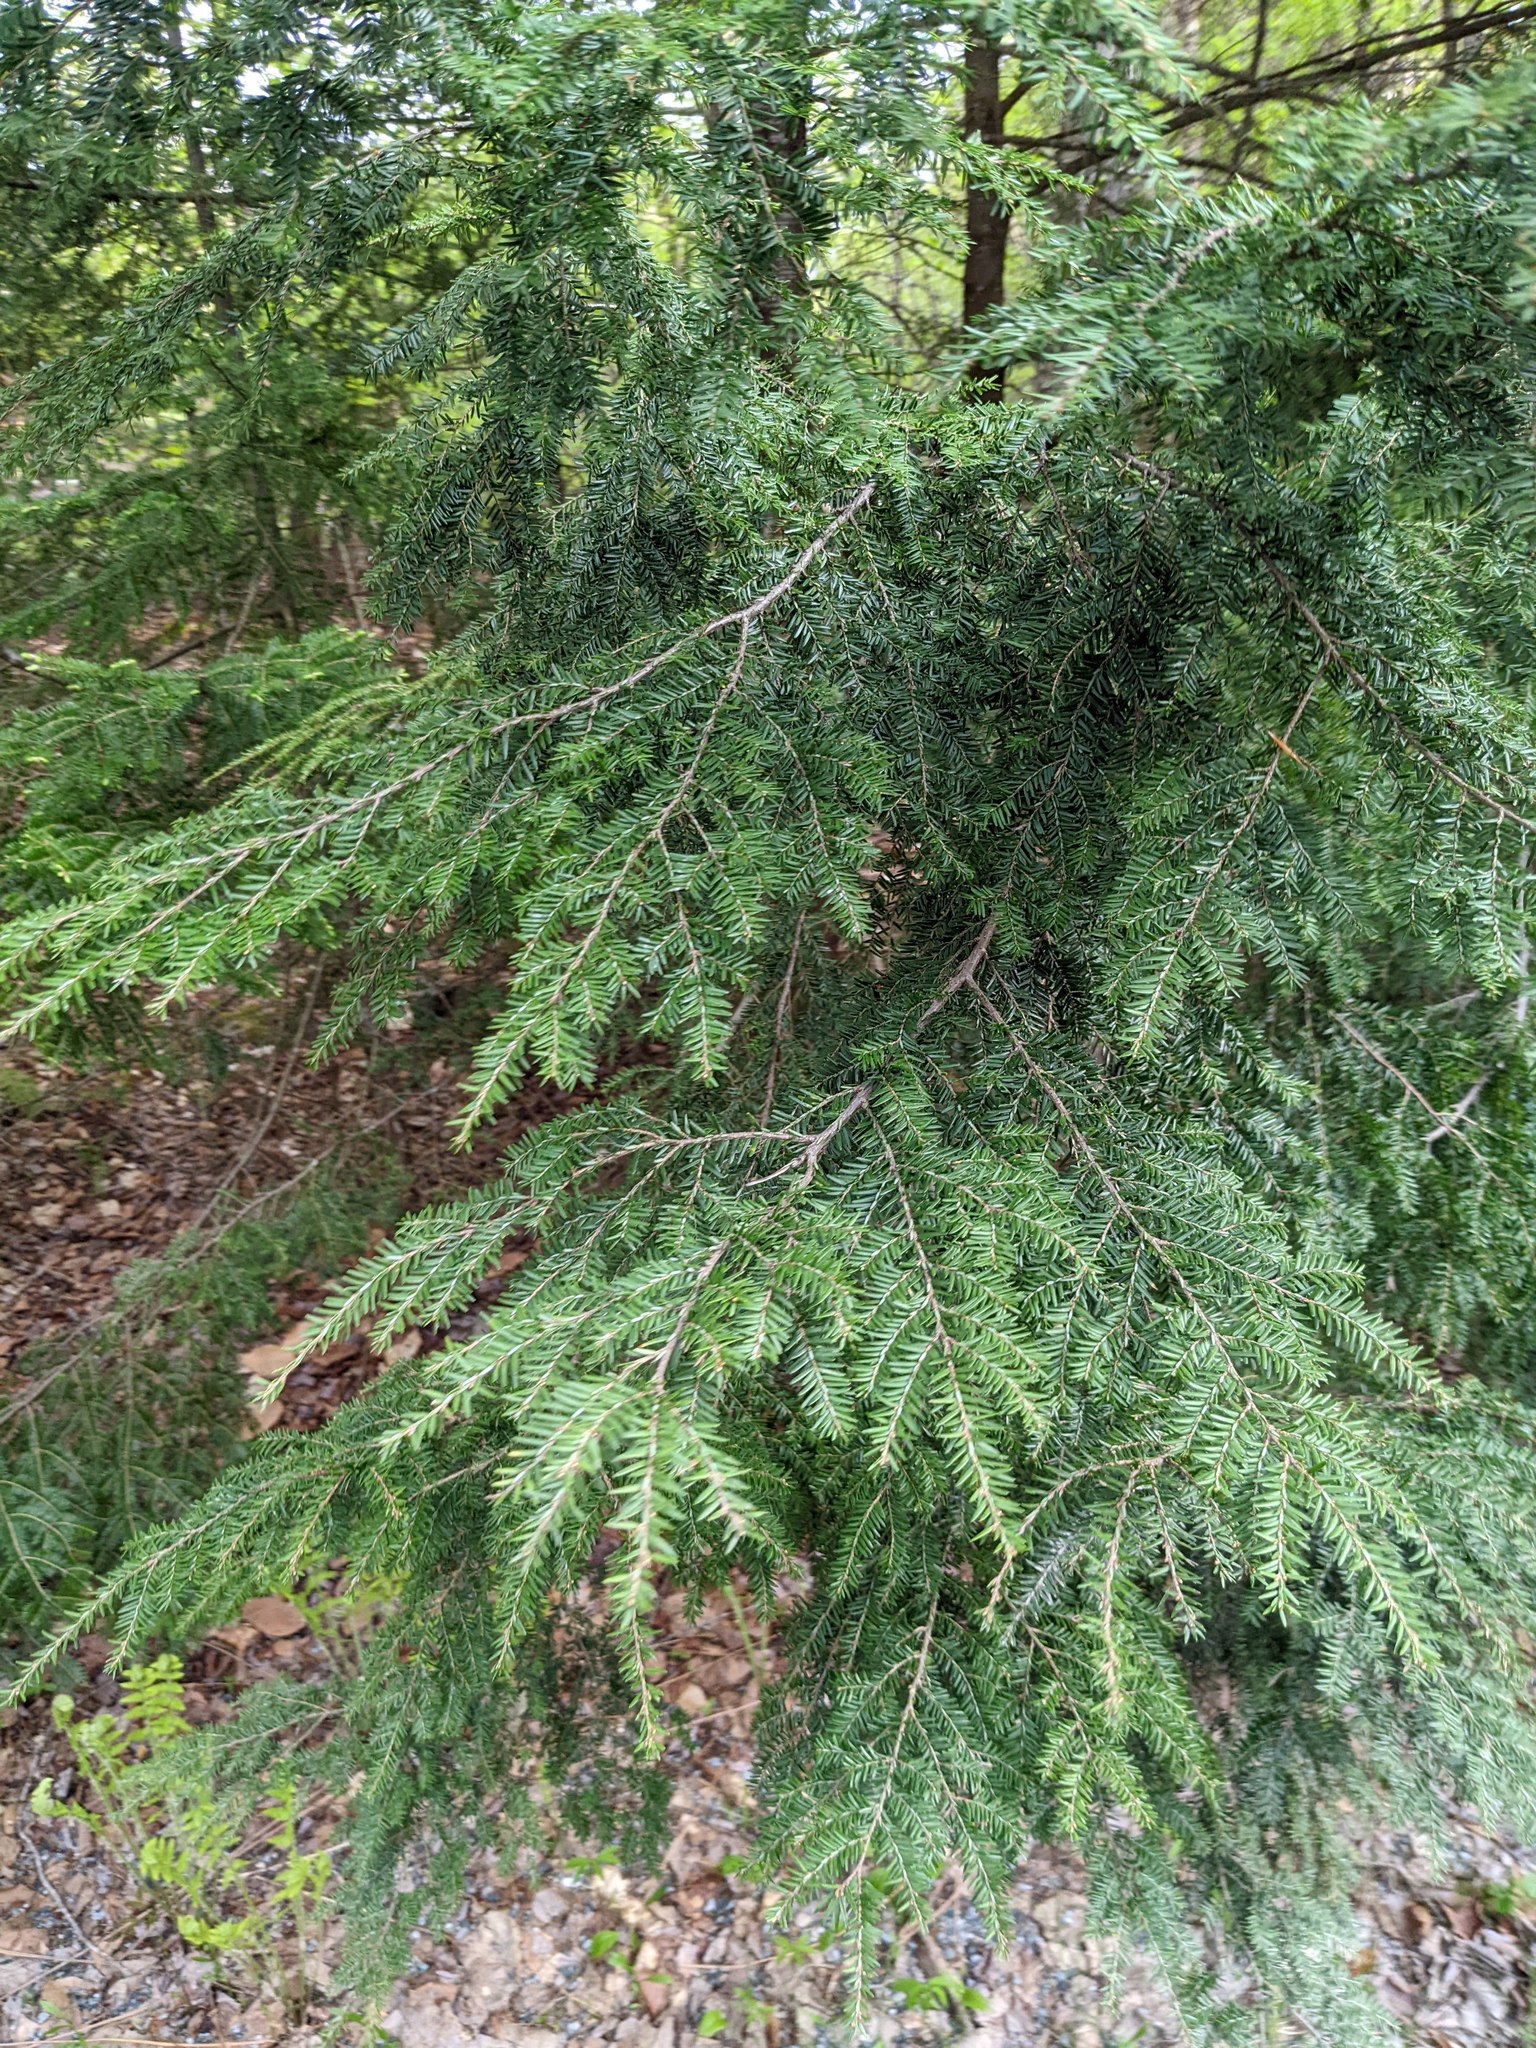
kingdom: Plantae
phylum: Tracheophyta
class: Pinopsida
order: Pinales
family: Pinaceae
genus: Tsuga
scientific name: Tsuga canadensis
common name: Eastern hemlock
